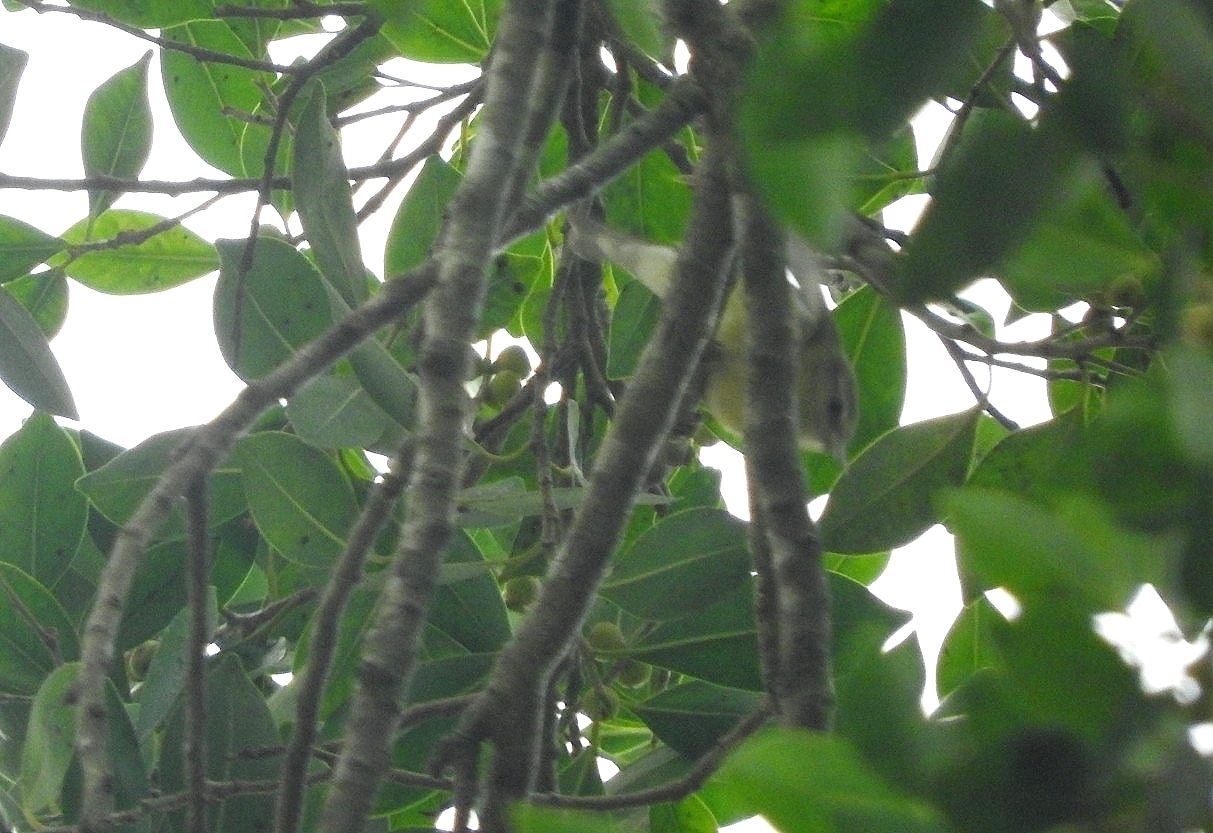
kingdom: Animalia
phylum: Chordata
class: Aves
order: Passeriformes
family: Parulidae
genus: Leiothlypis
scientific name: Leiothlypis peregrina
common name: Tennessee warbler
